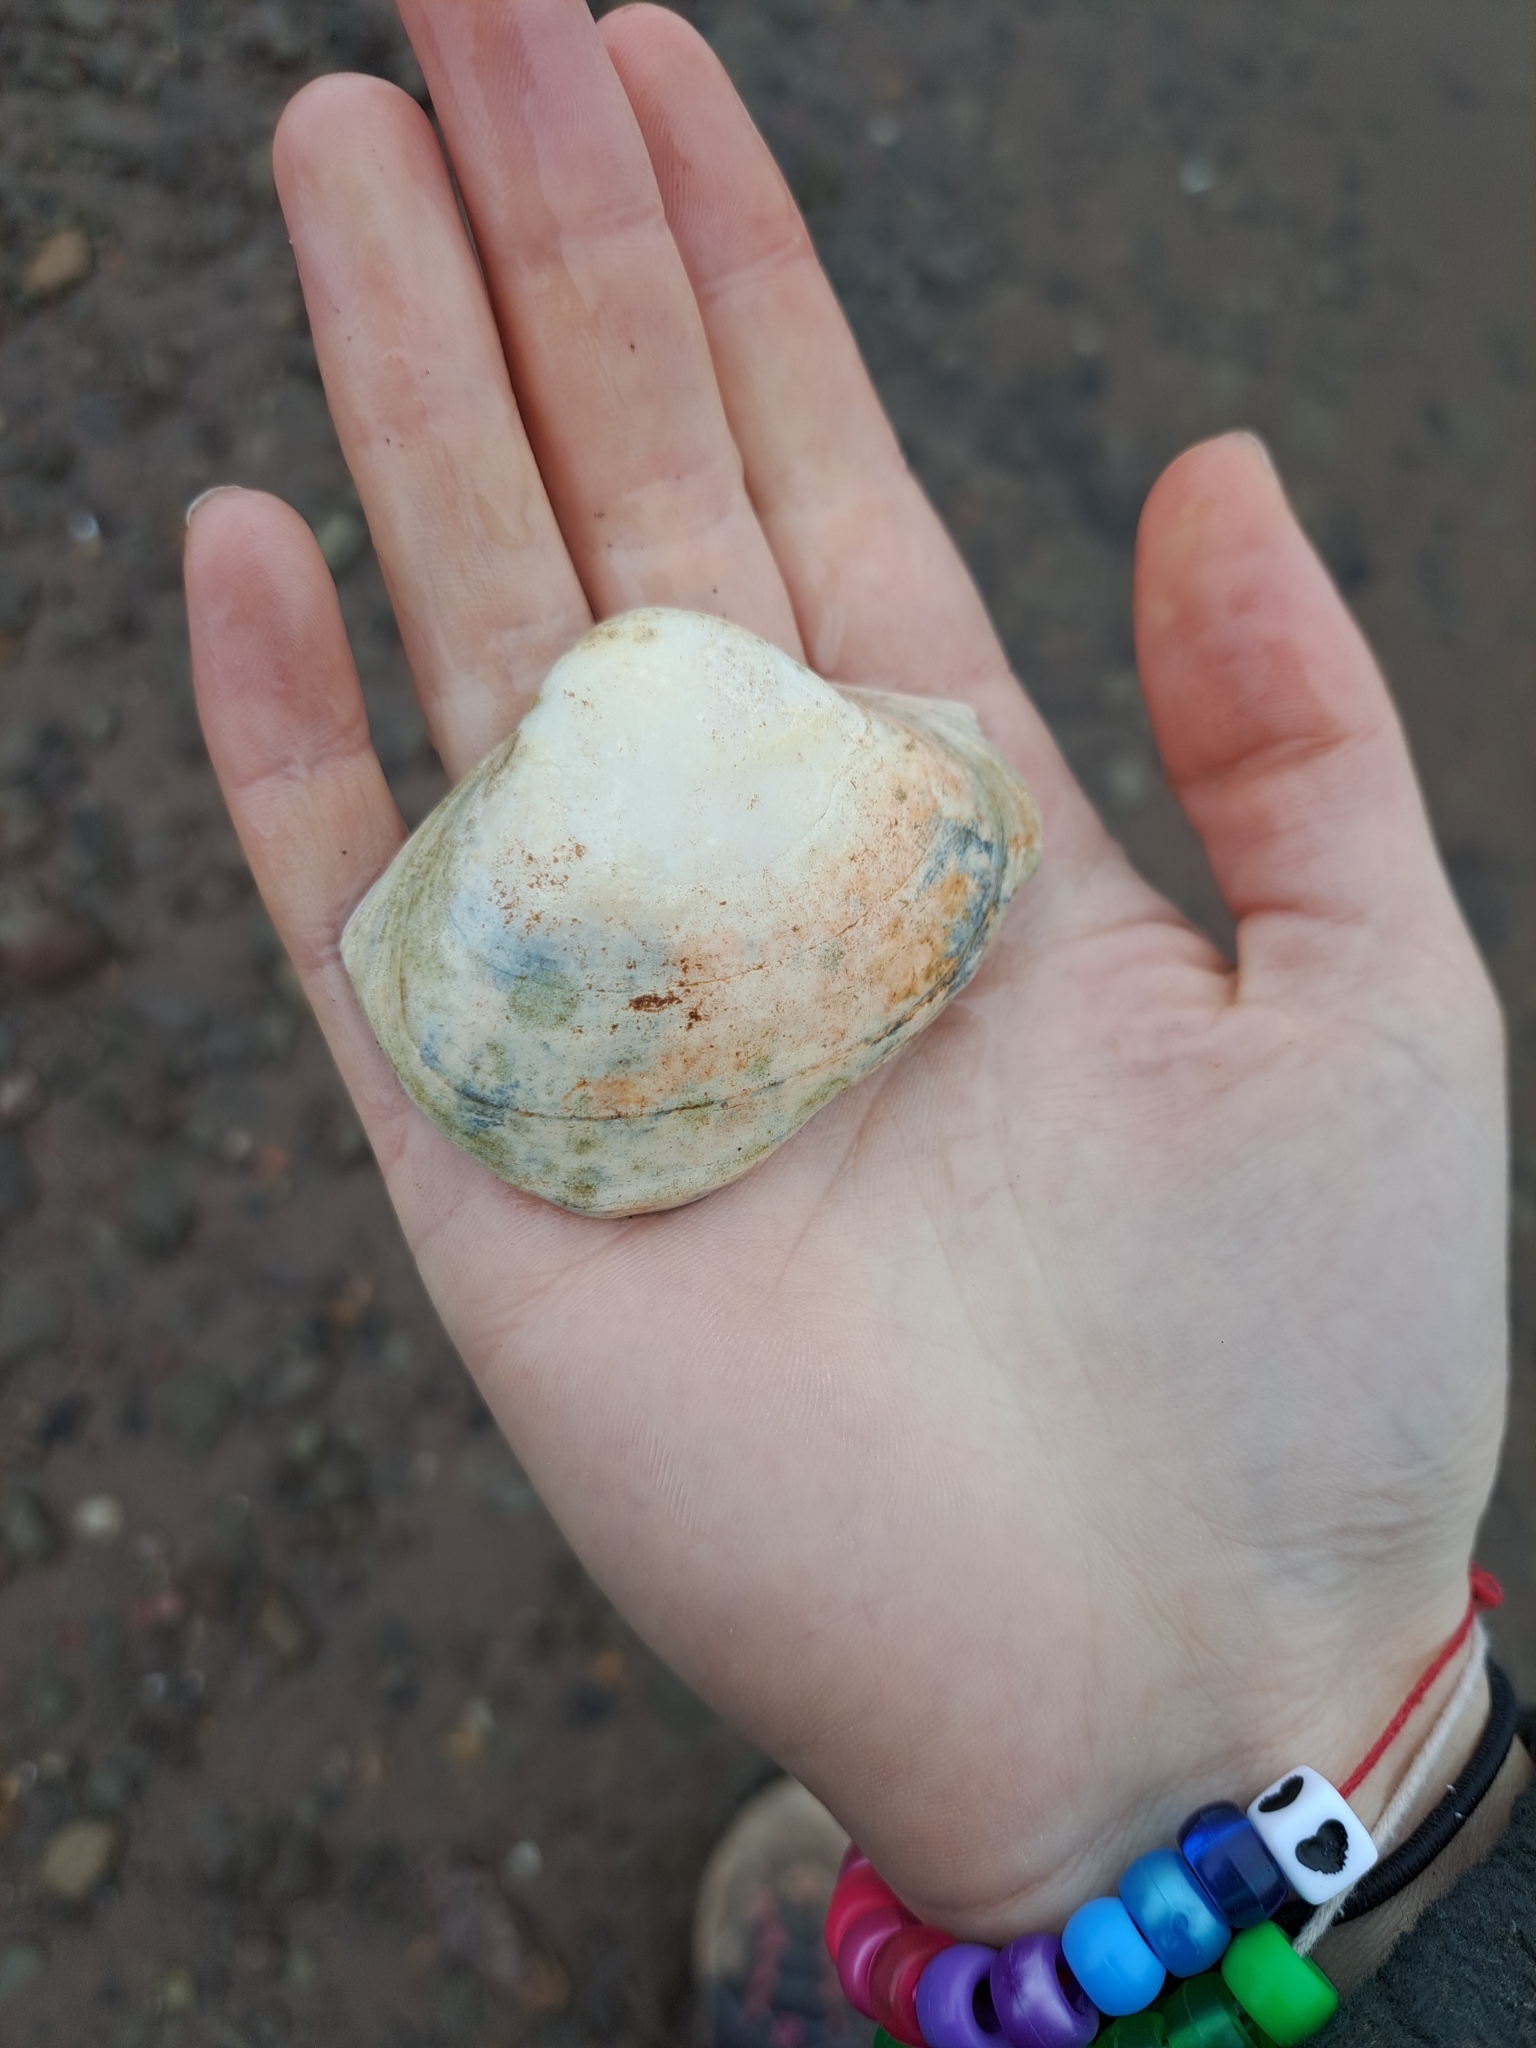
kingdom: Animalia
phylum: Mollusca
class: Bivalvia
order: Venerida
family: Mactridae
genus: Spisula
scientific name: Spisula solidissima
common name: Atlantic surf clam
